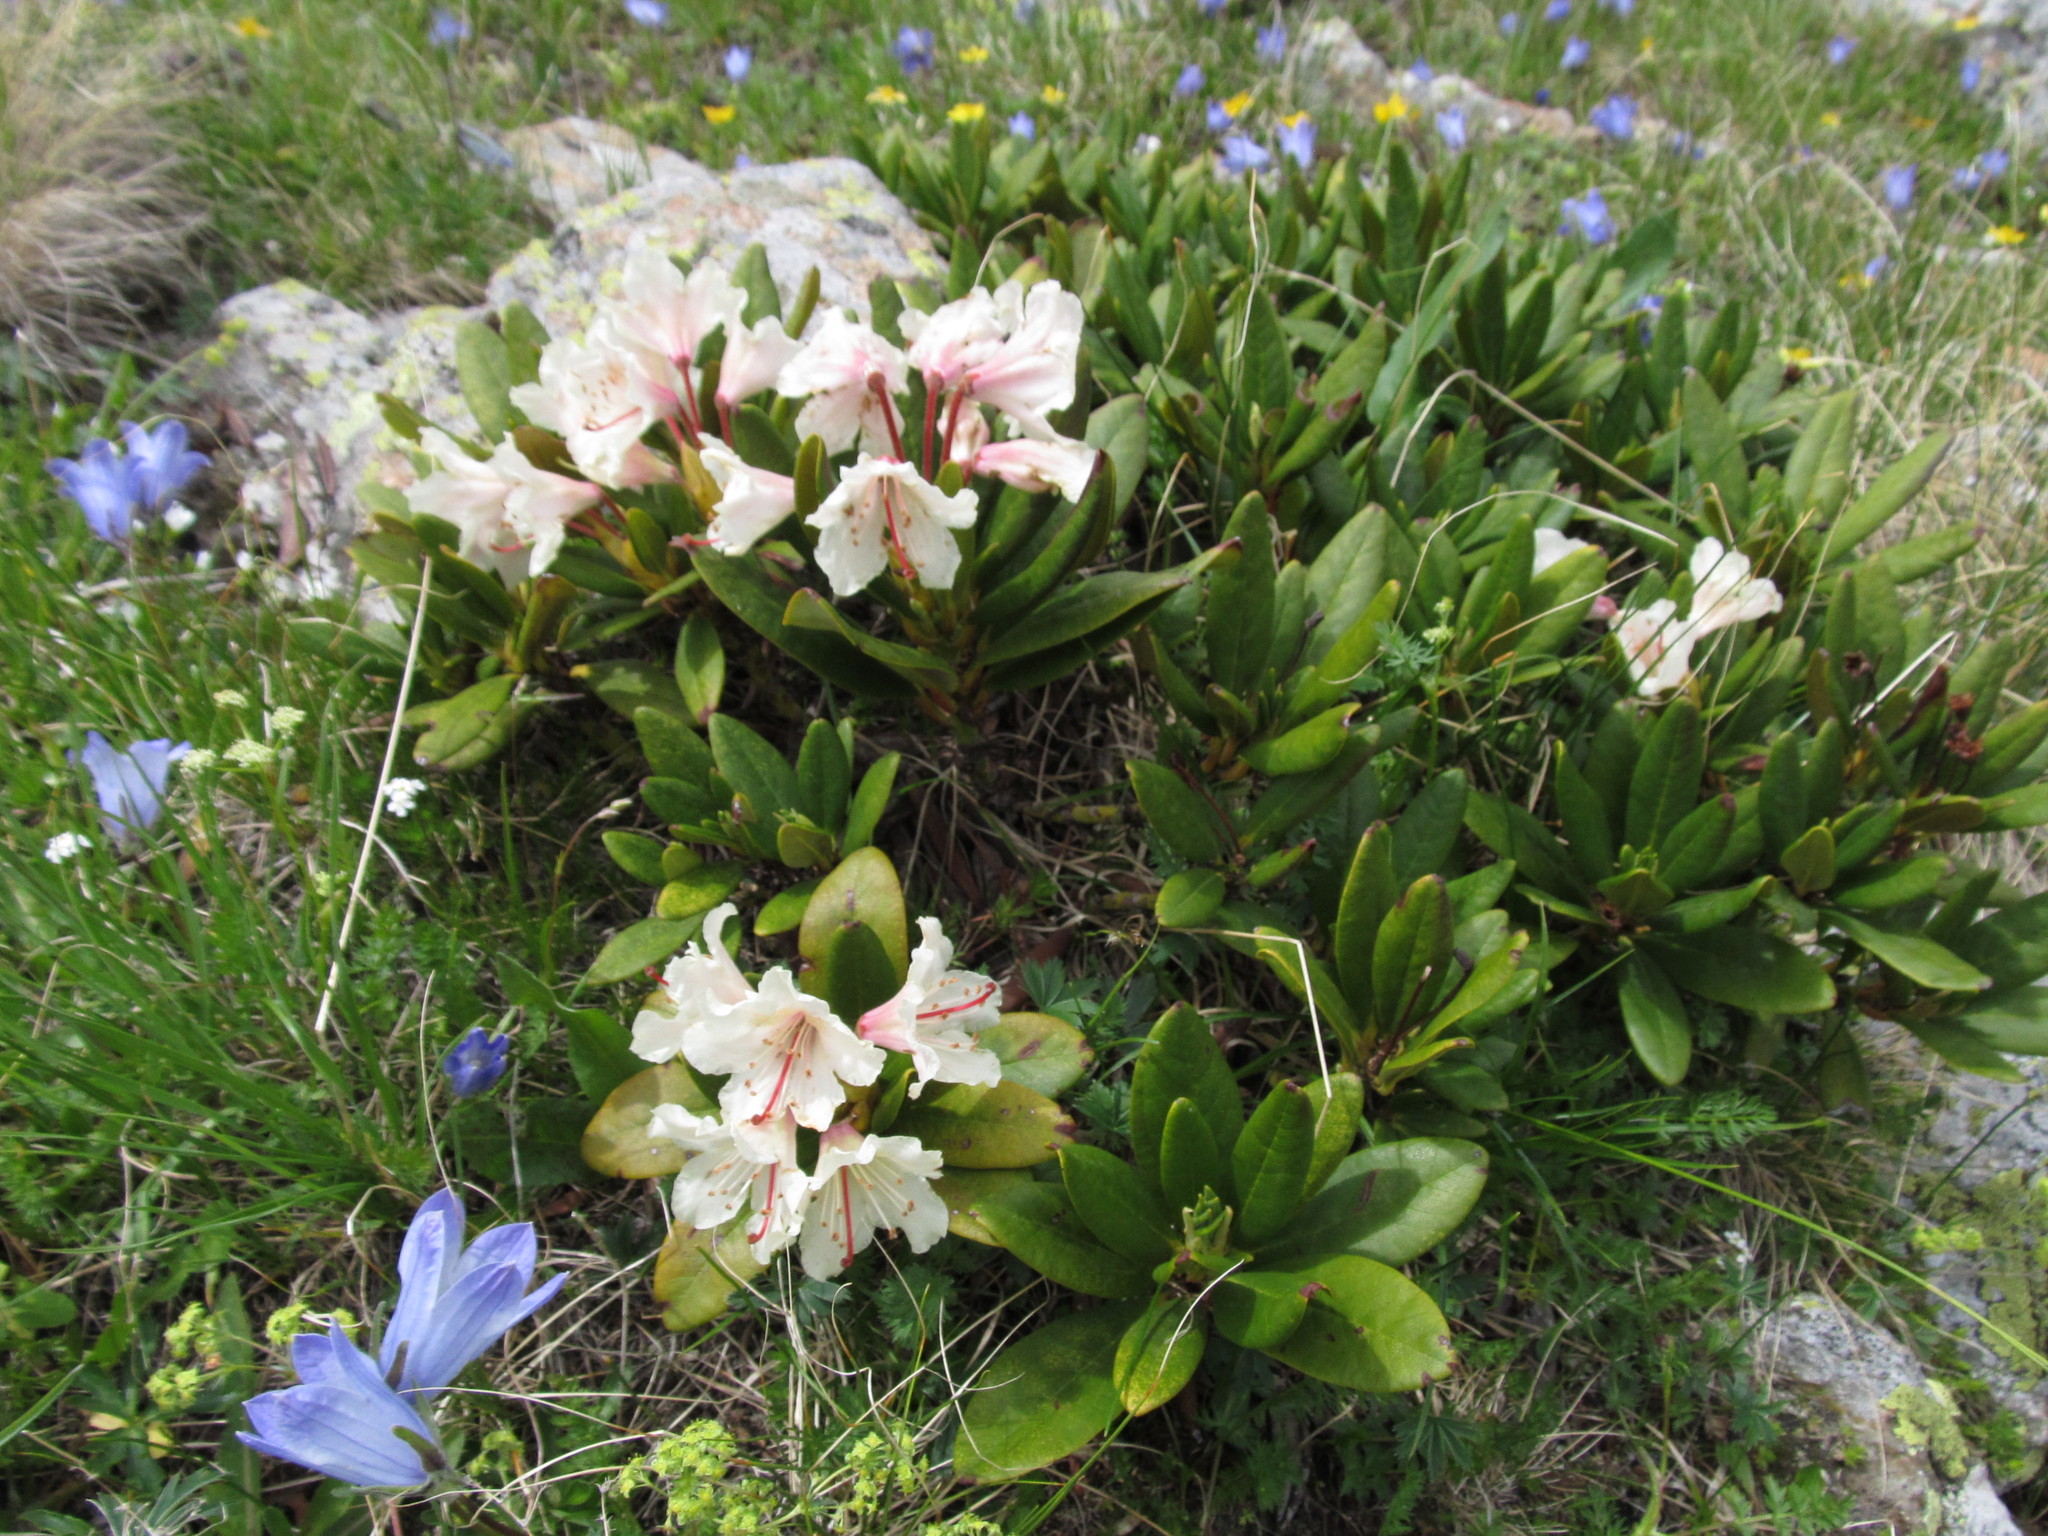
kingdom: Plantae
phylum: Tracheophyta
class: Magnoliopsida
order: Ericales
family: Ericaceae
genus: Rhododendron
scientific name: Rhododendron caucasicum
